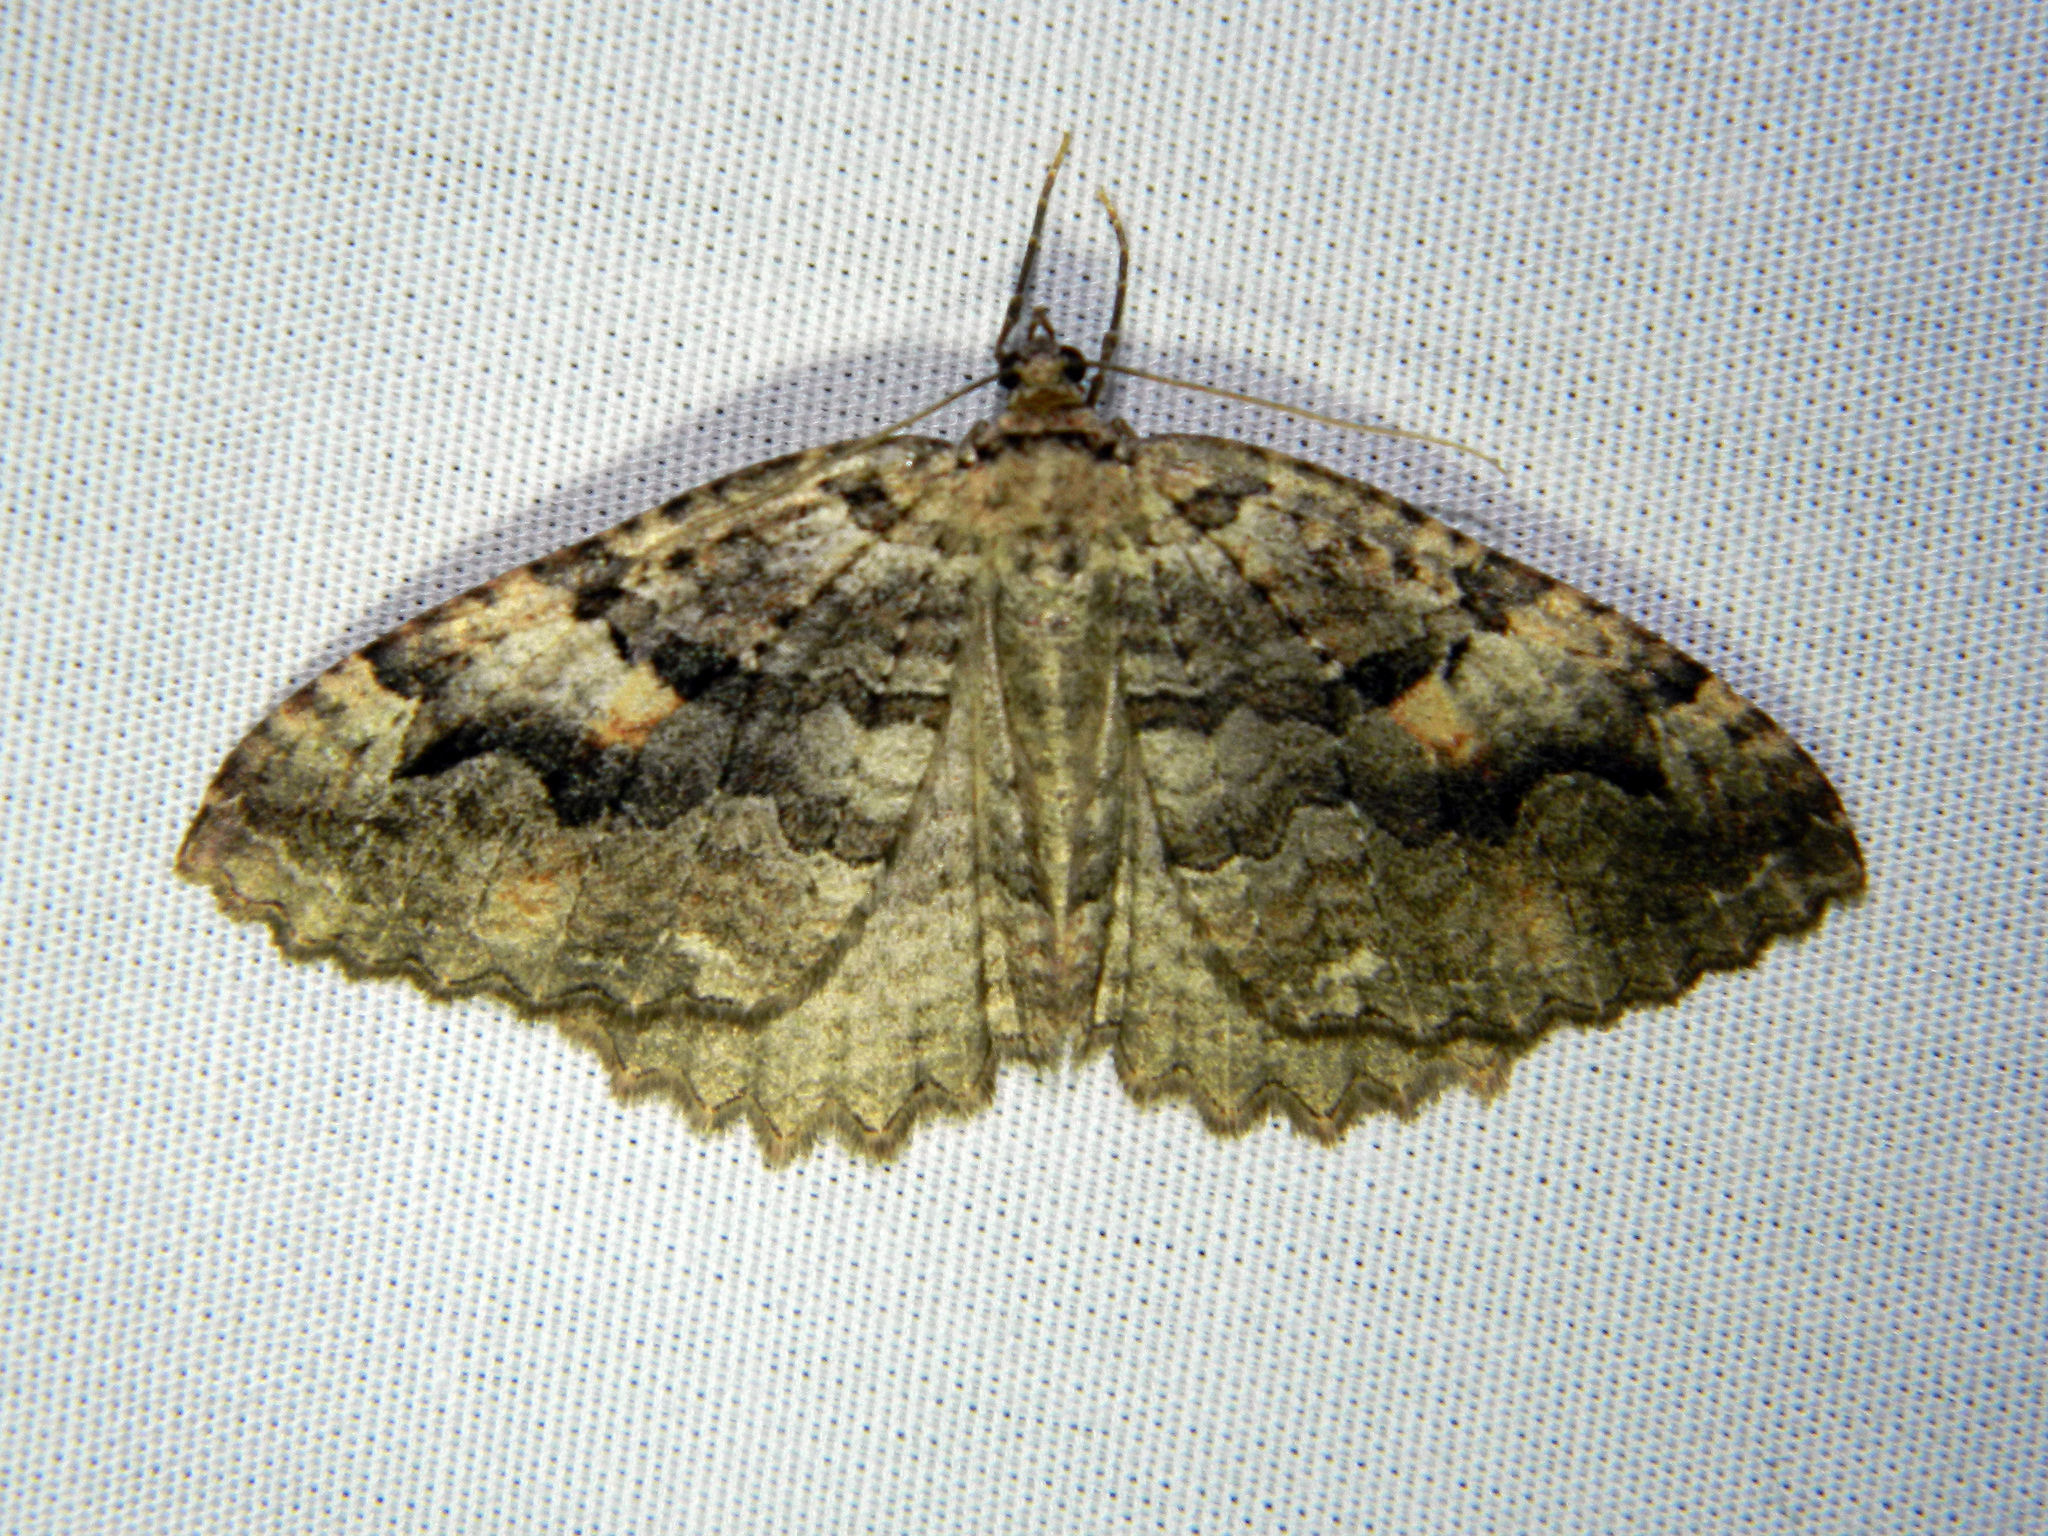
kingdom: Animalia
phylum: Arthropoda
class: Insecta
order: Lepidoptera
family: Geometridae
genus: Triphosa
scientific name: Triphosa haesitata
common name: Tissue moth
